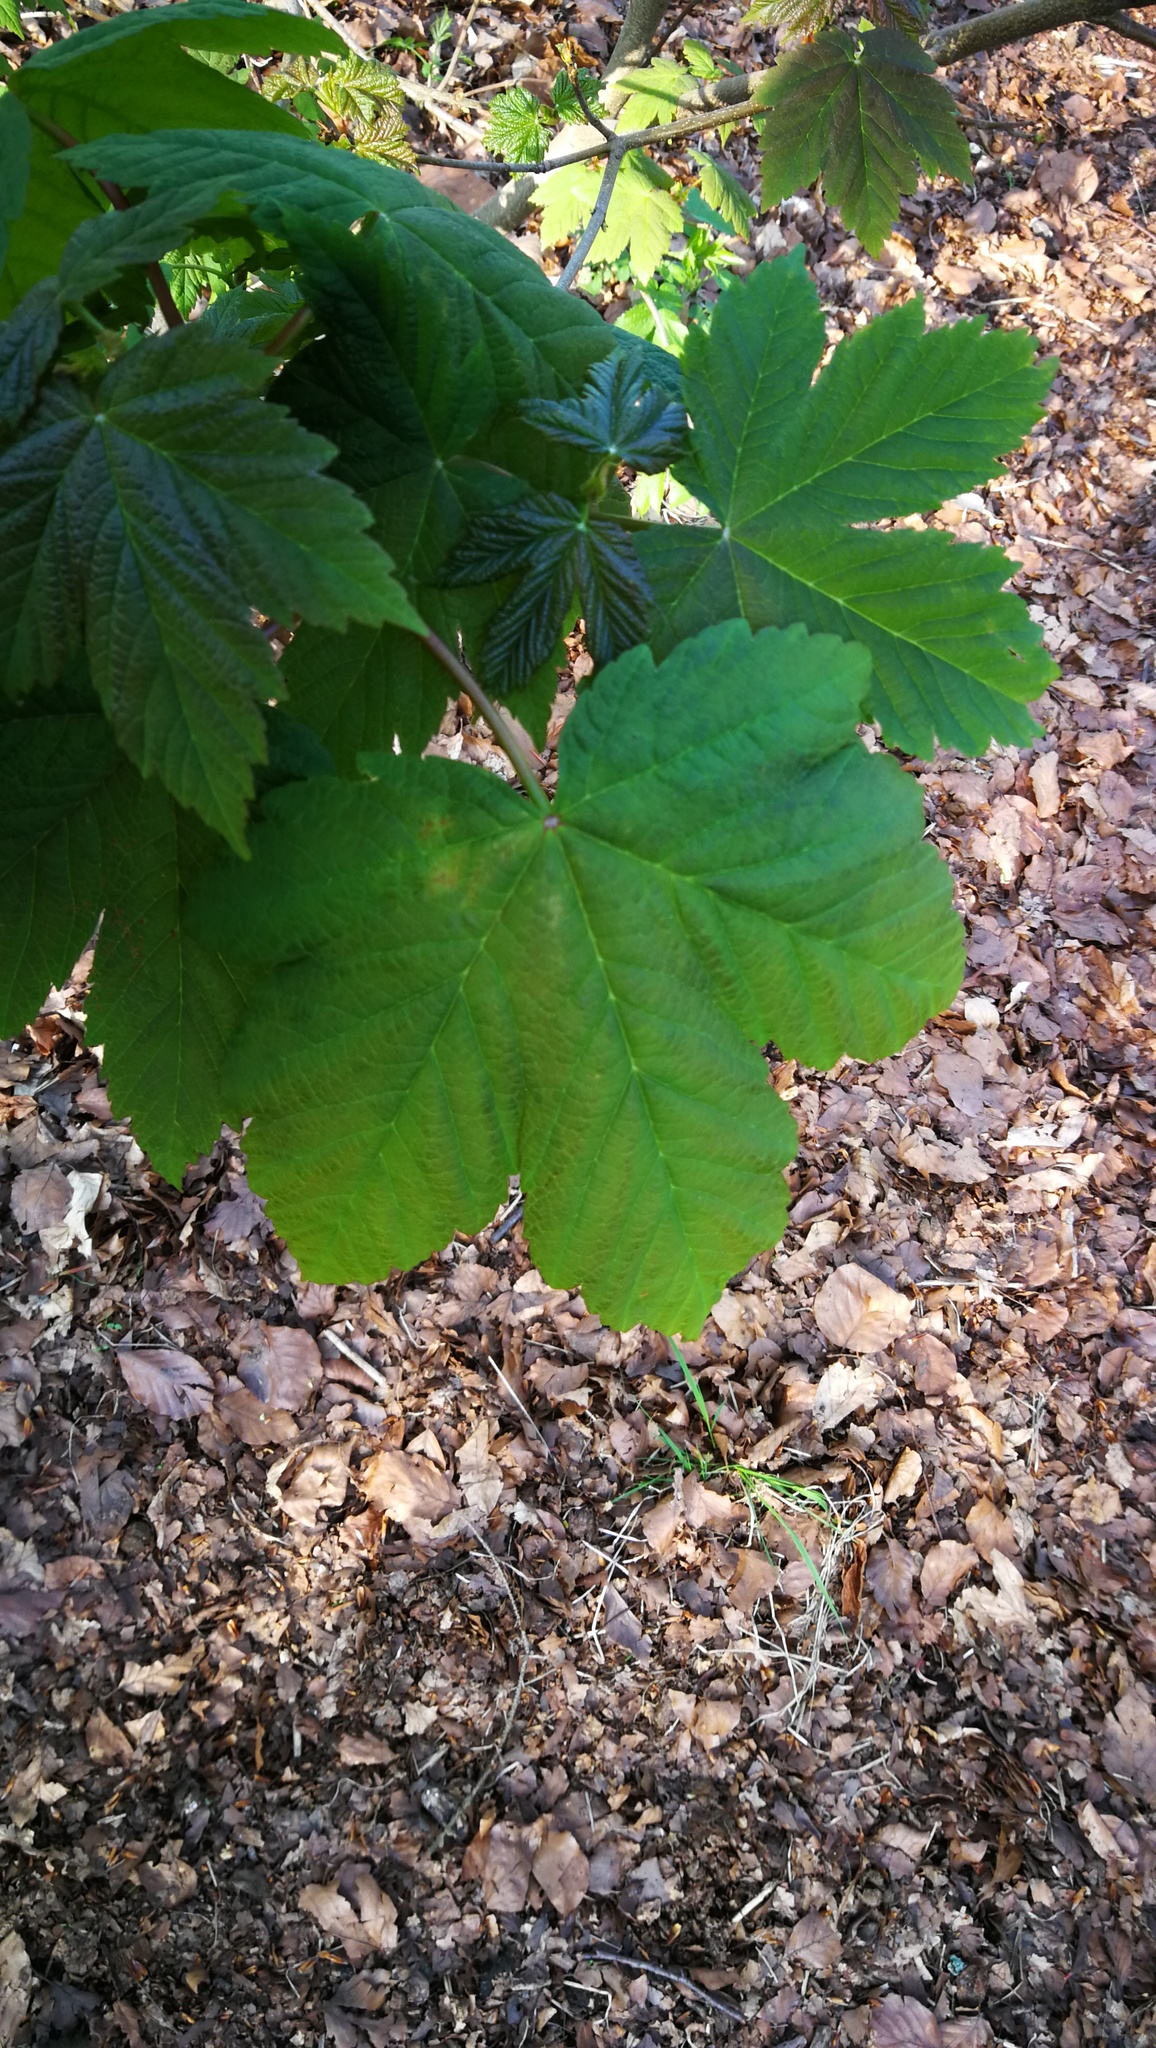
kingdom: Plantae
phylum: Tracheophyta
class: Magnoliopsida
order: Sapindales
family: Sapindaceae
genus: Acer
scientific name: Acer pseudoplatanus
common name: Sycamore
